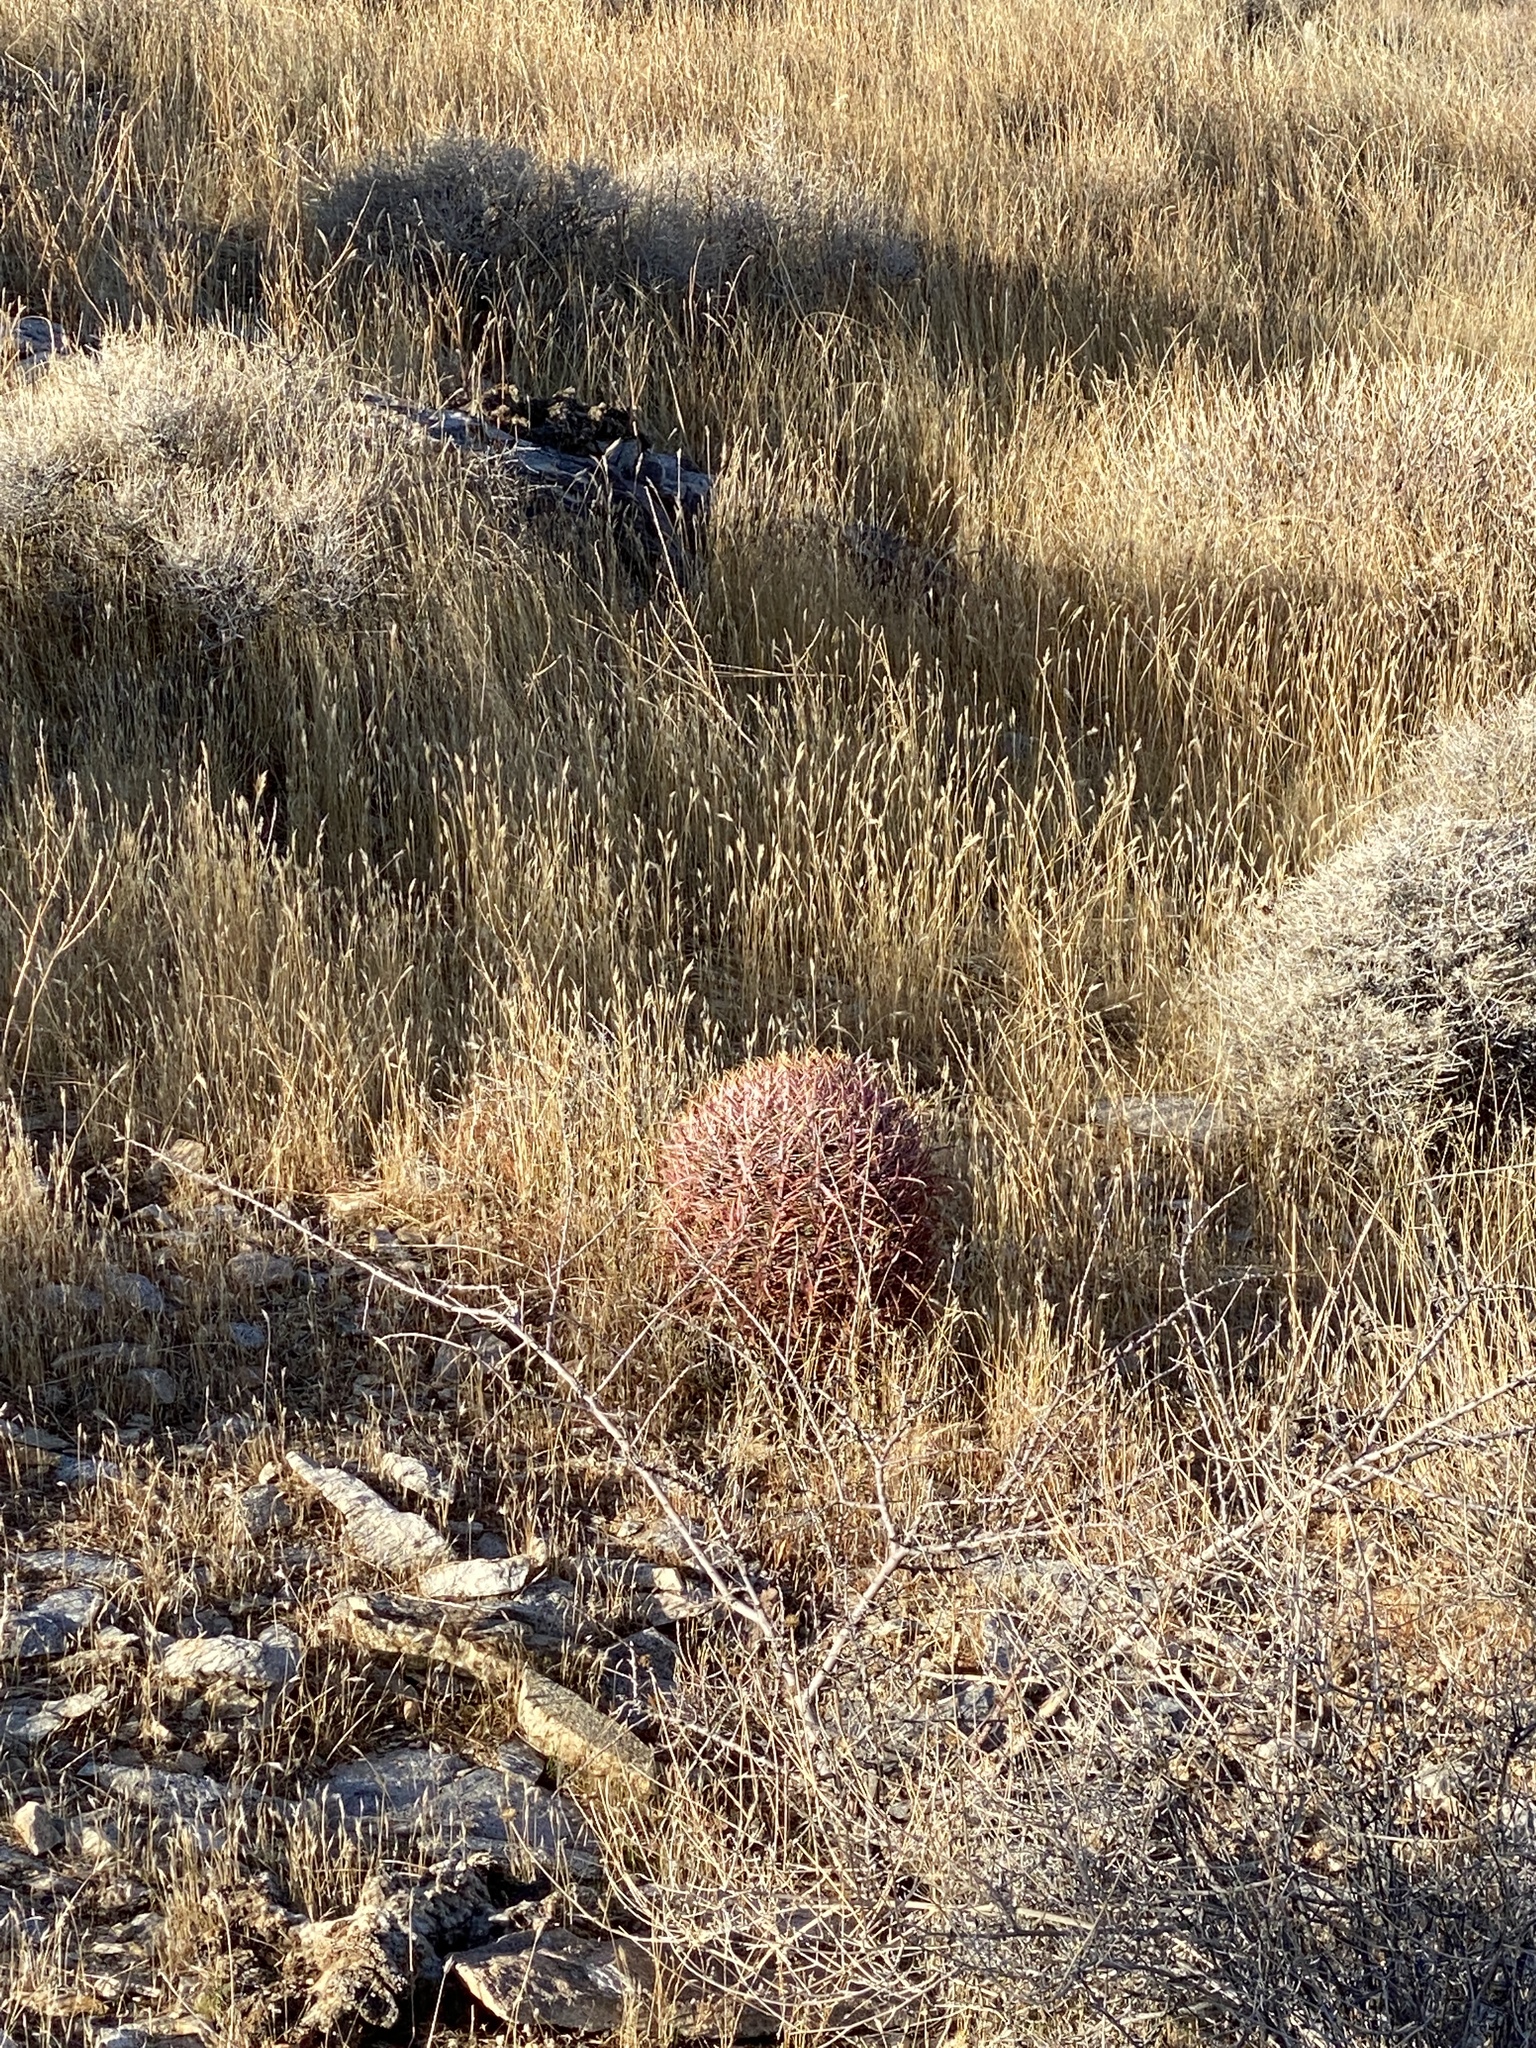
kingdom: Plantae
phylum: Tracheophyta
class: Magnoliopsida
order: Caryophyllales
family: Cactaceae
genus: Ferocactus
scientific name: Ferocactus cylindraceus
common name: California barrel cactus
